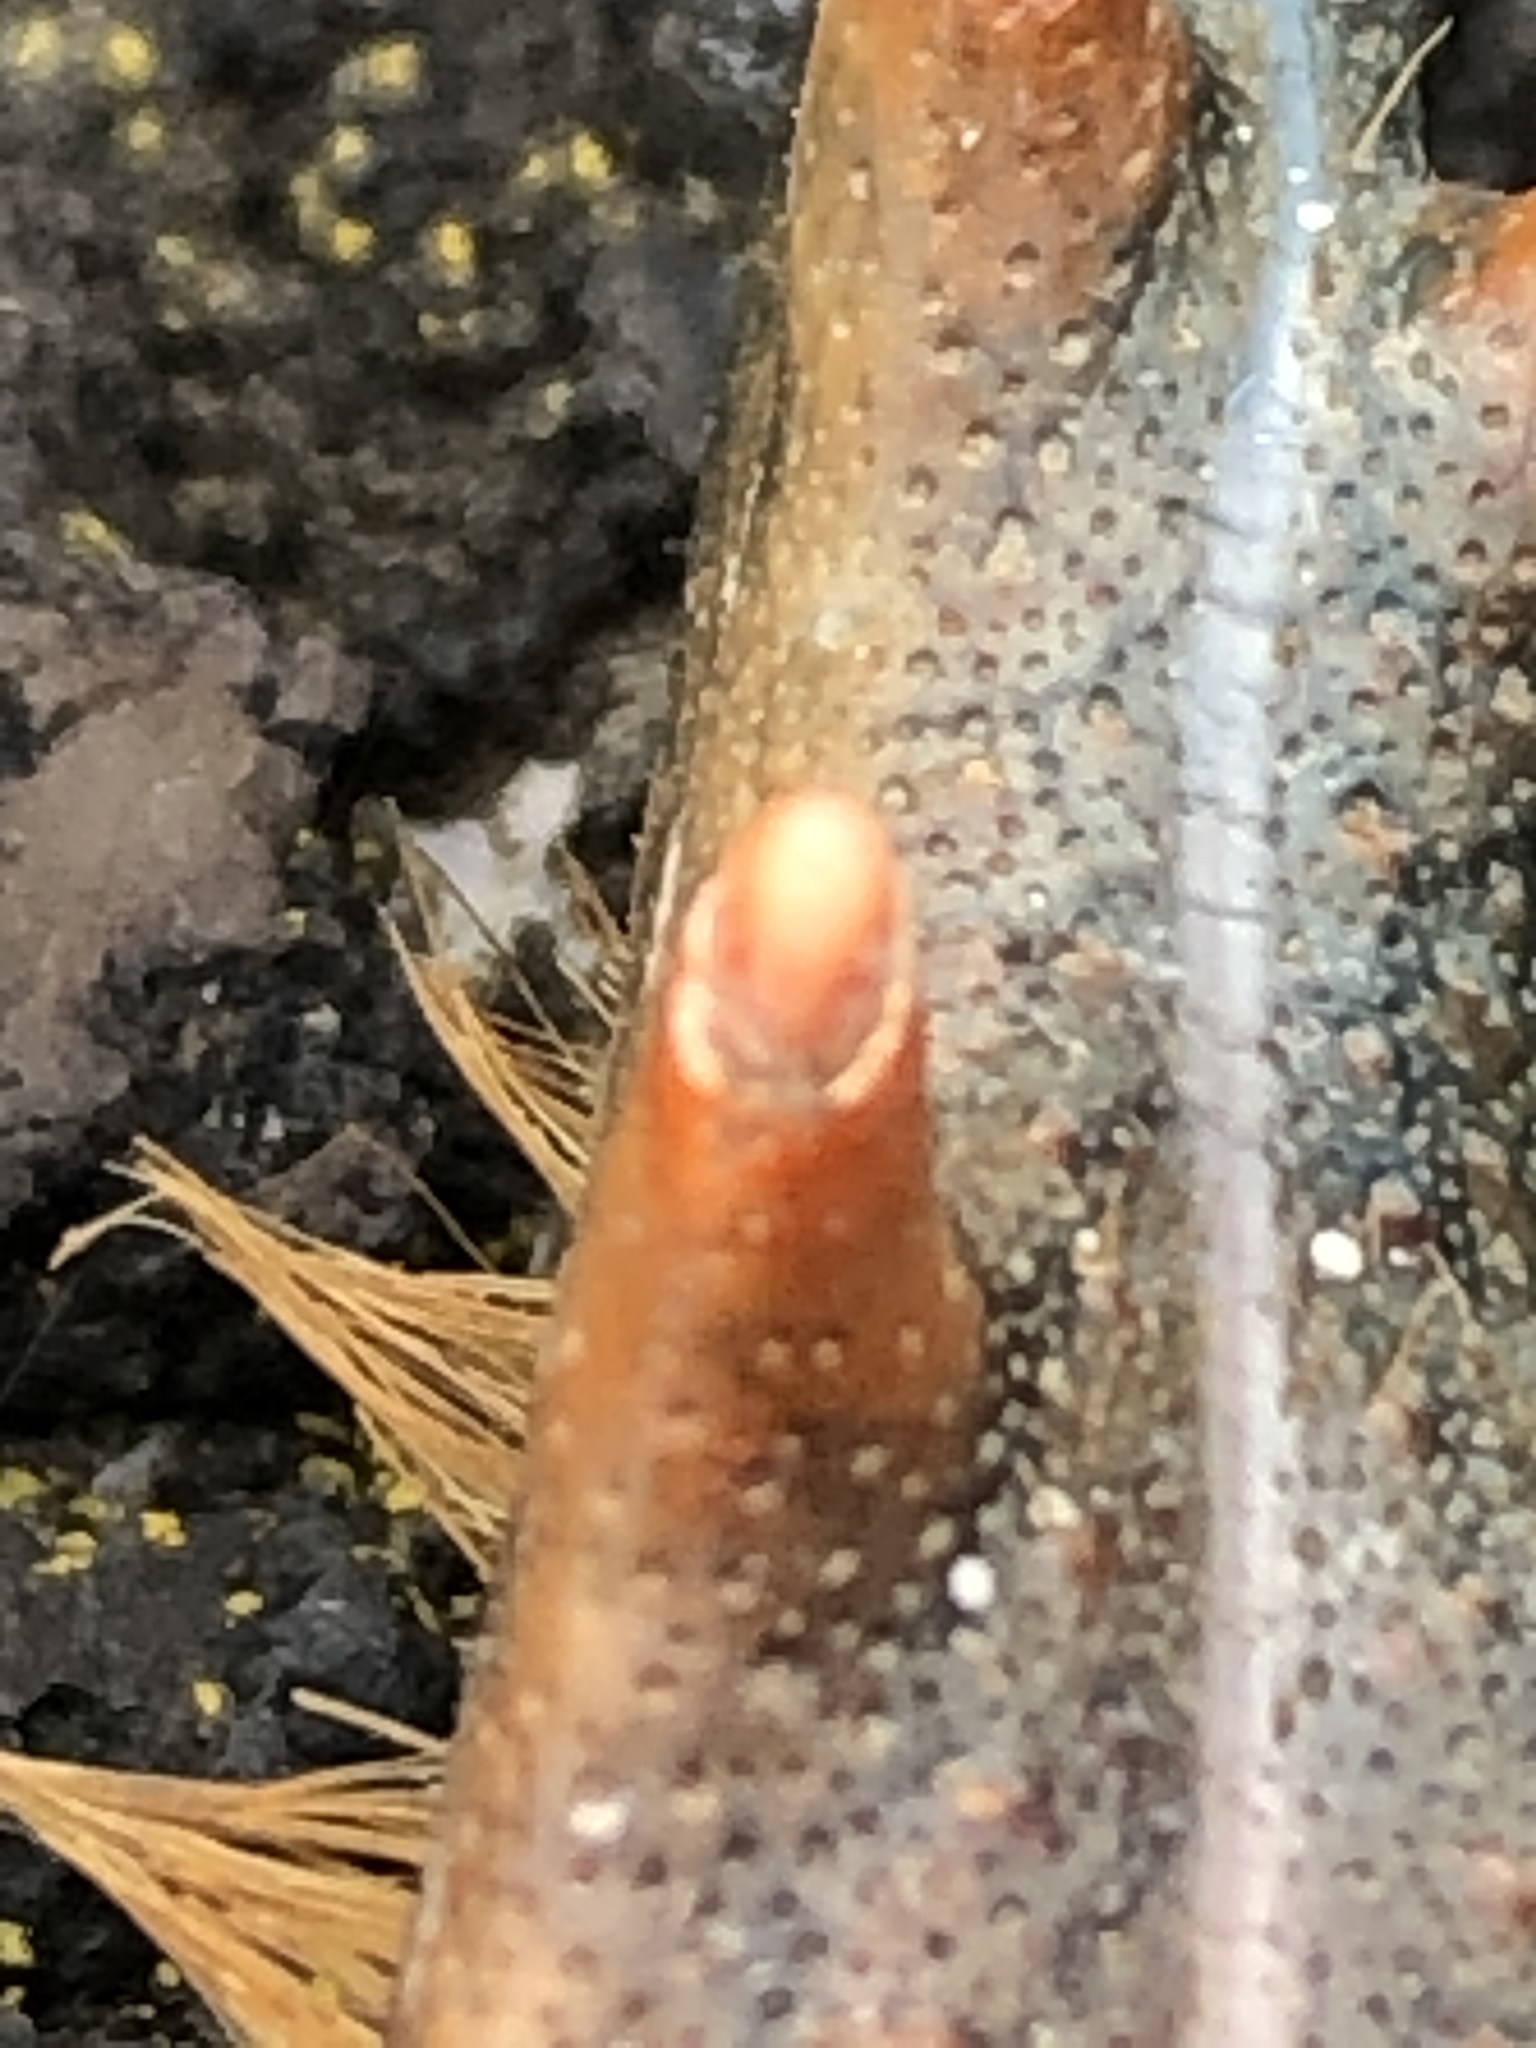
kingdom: Animalia
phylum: Arthropoda
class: Malacostraca
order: Decapoda
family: Nephropidae
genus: Homarus
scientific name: Homarus americanus
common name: American lobster
